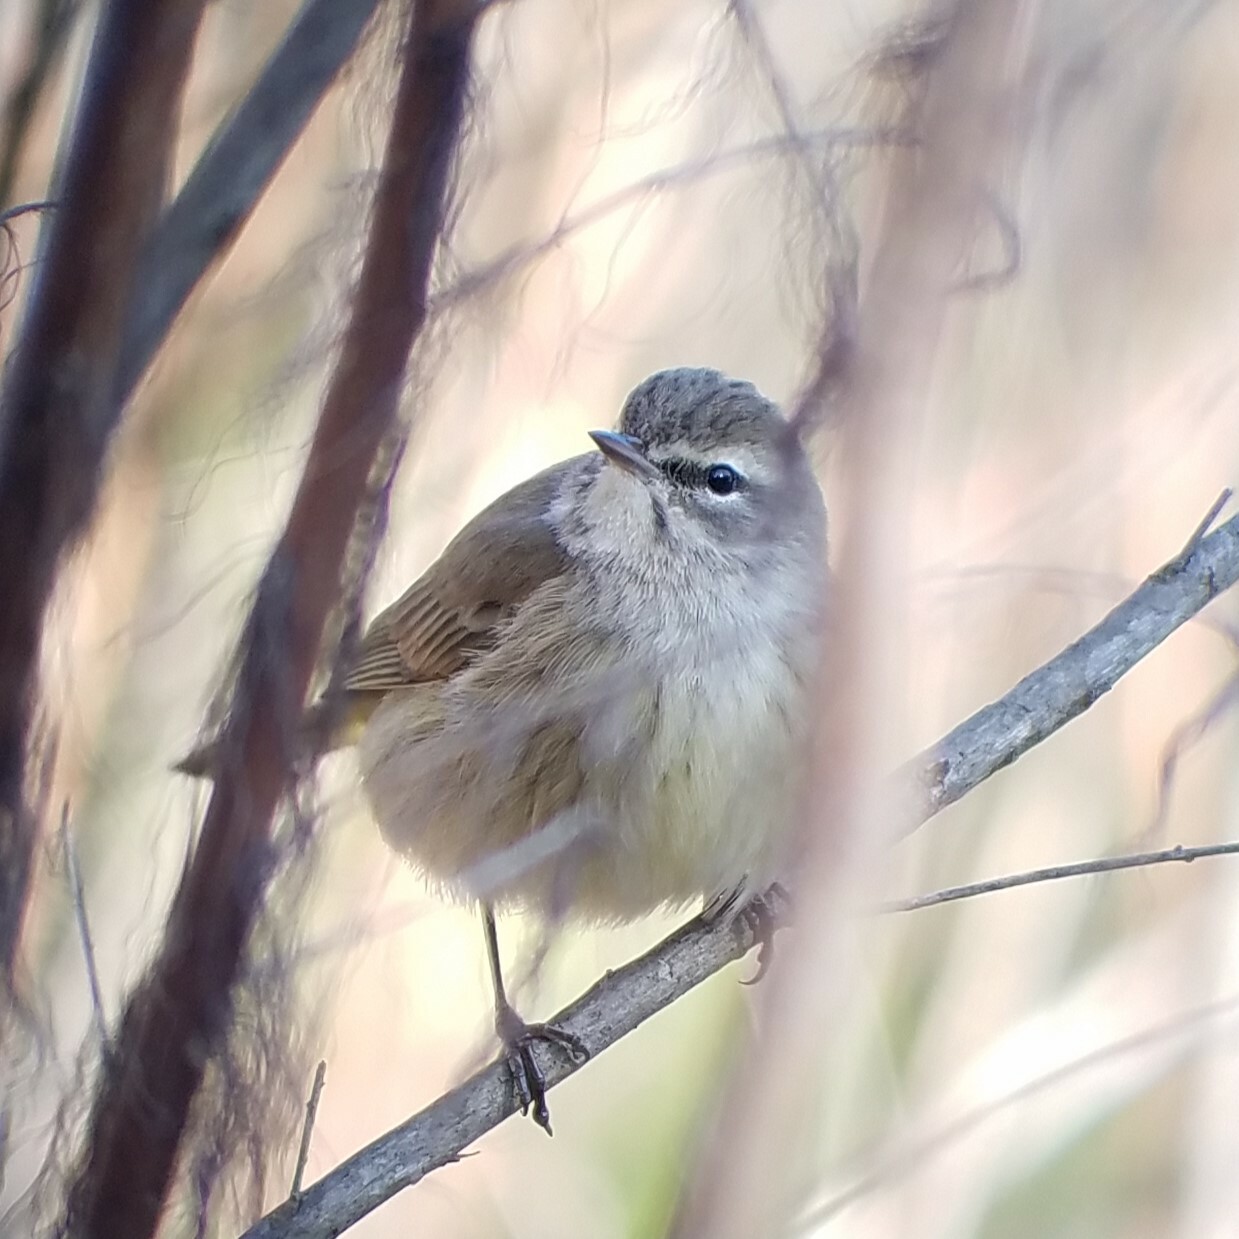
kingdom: Animalia
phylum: Chordata
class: Aves
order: Passeriformes
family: Parulidae
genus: Setophaga
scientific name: Setophaga palmarum
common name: Palm warbler
